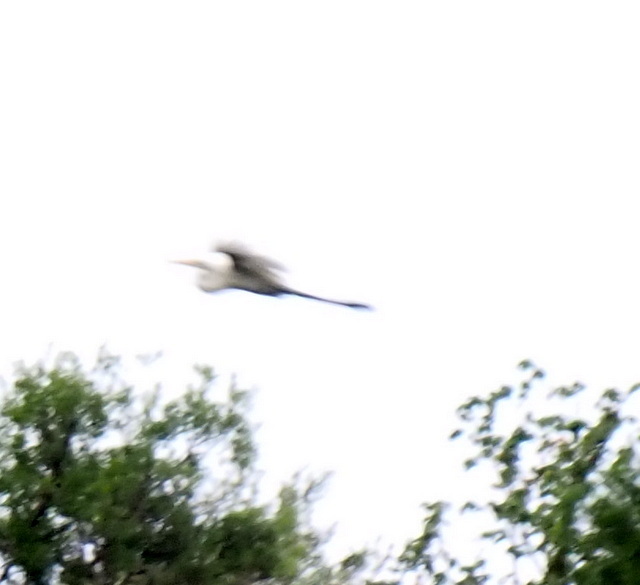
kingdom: Animalia
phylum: Chordata
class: Aves
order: Pelecaniformes
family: Ardeidae
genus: Ardea
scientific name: Ardea alba
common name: Great egret
